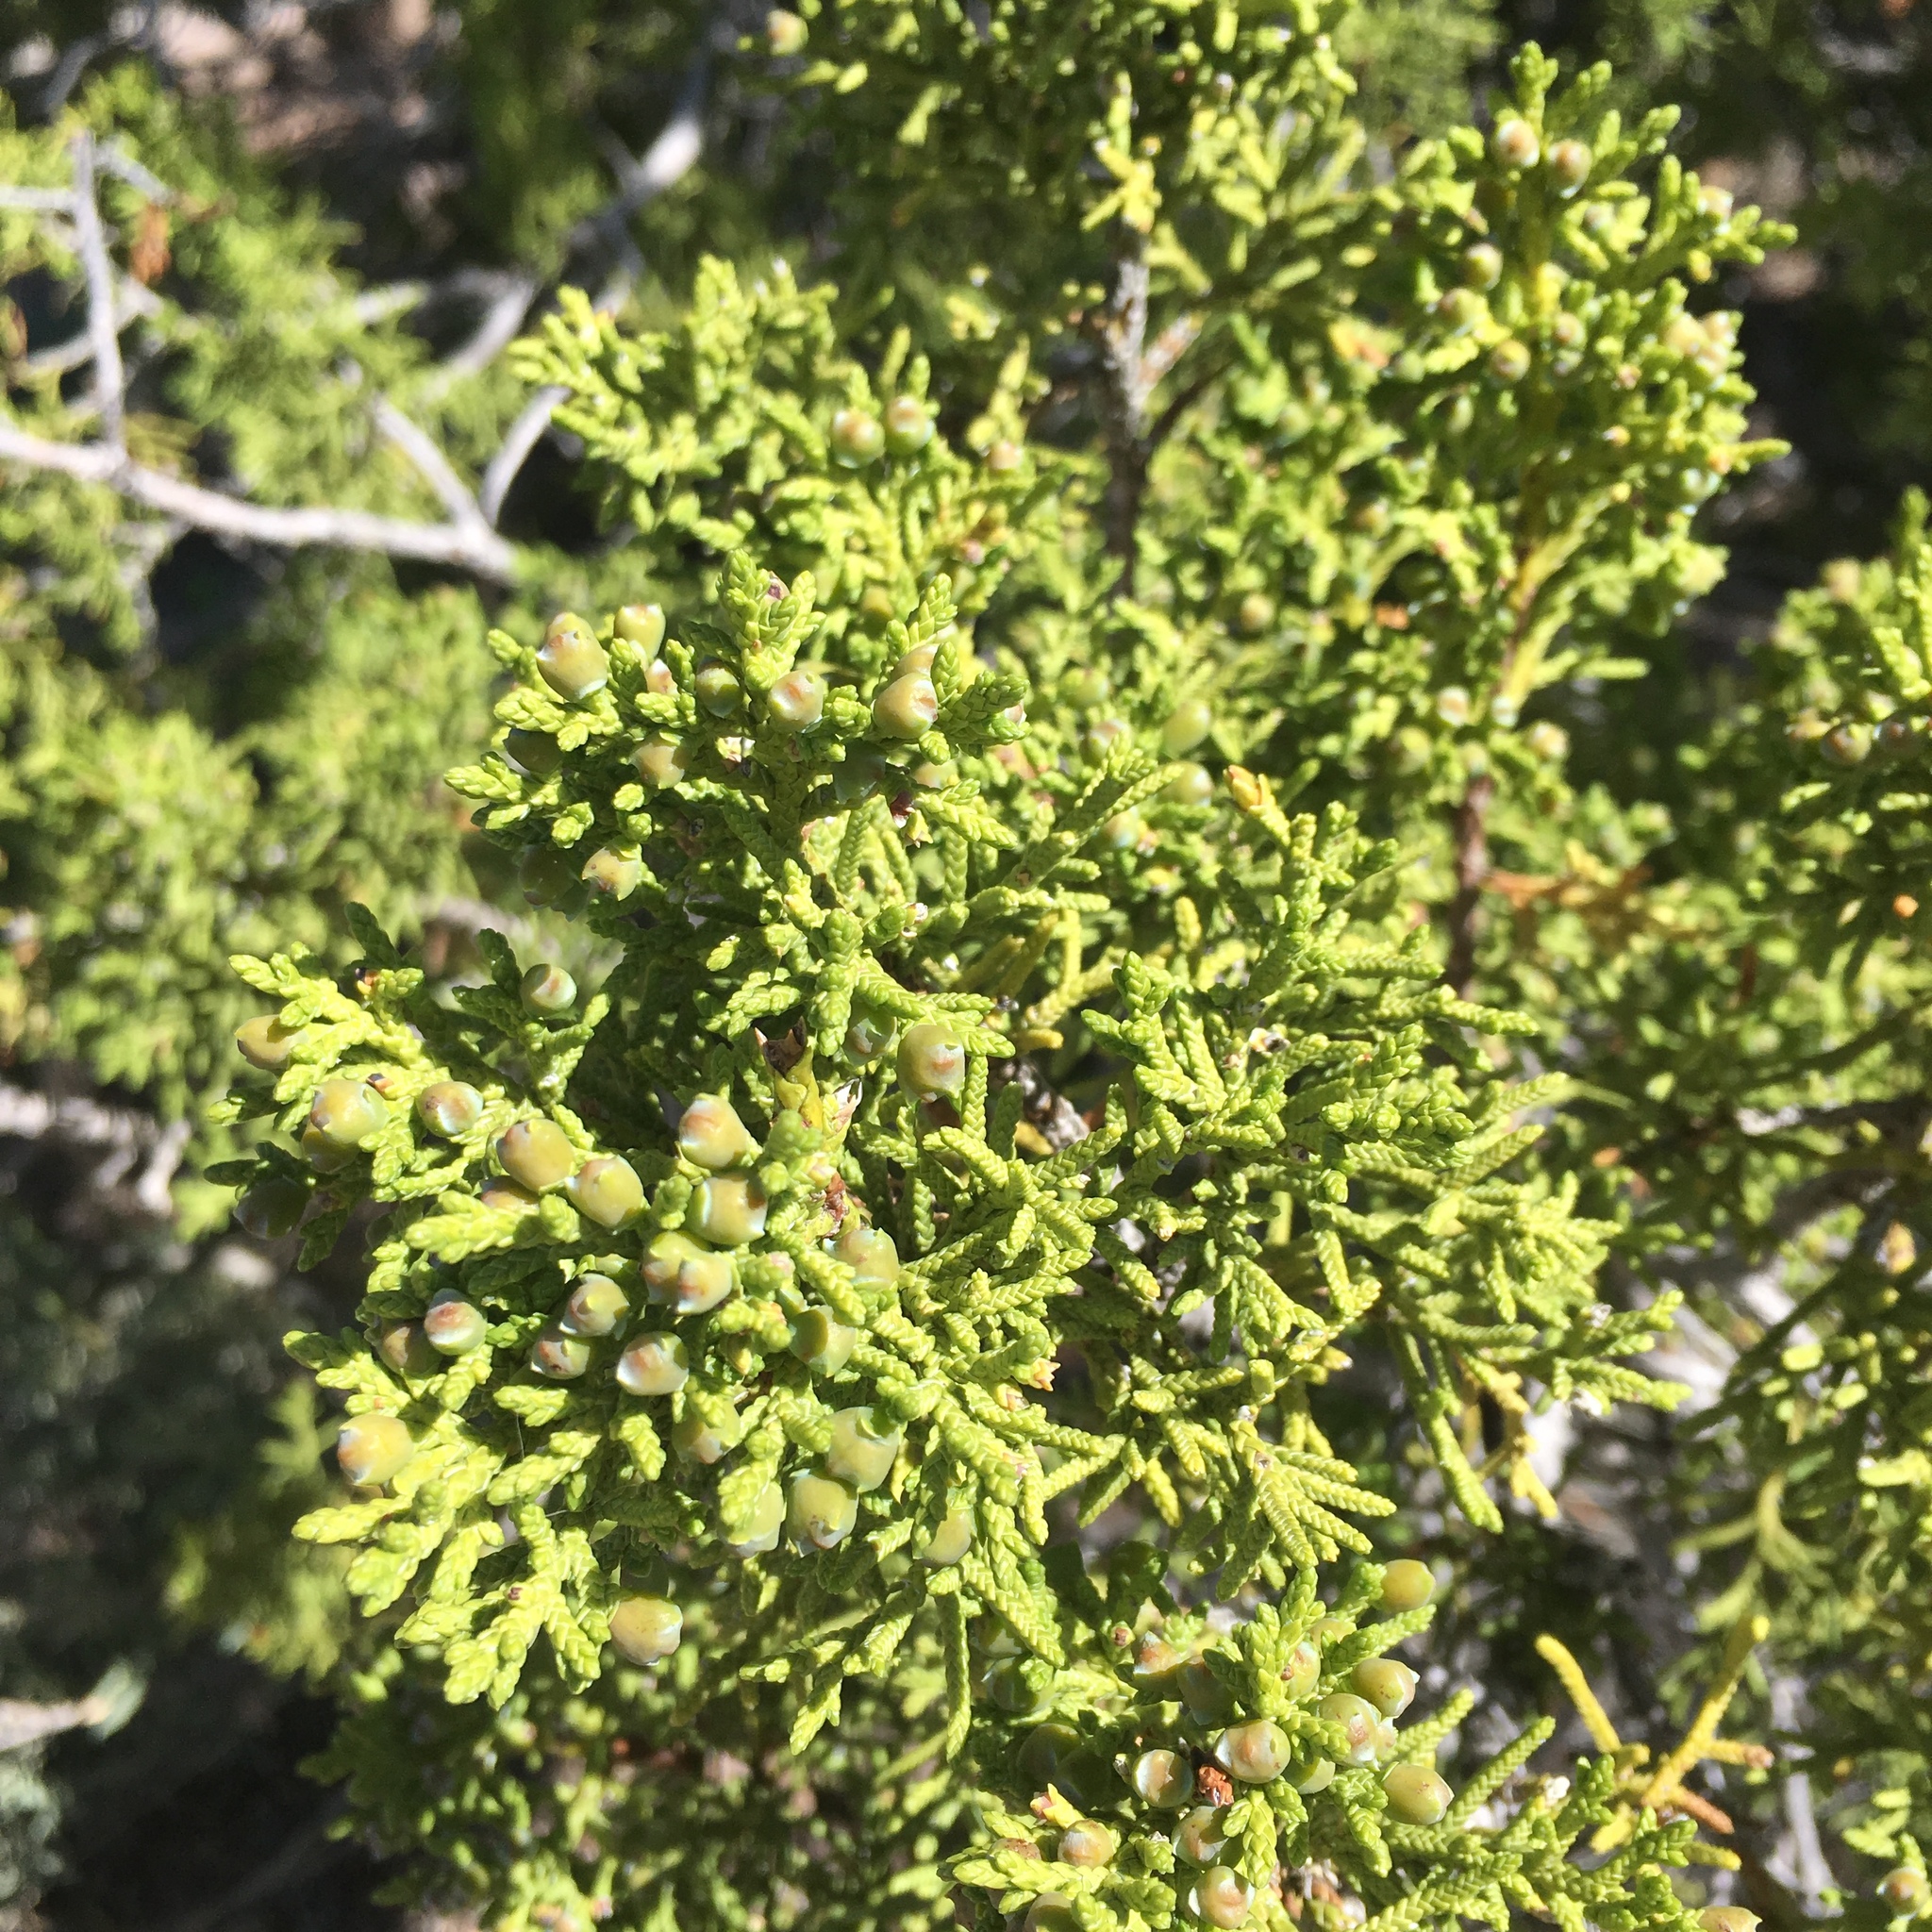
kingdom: Plantae
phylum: Tracheophyta
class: Pinopsida
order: Pinales
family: Cupressaceae
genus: Juniperus
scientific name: Juniperus monosperma
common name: One-seed juniper
